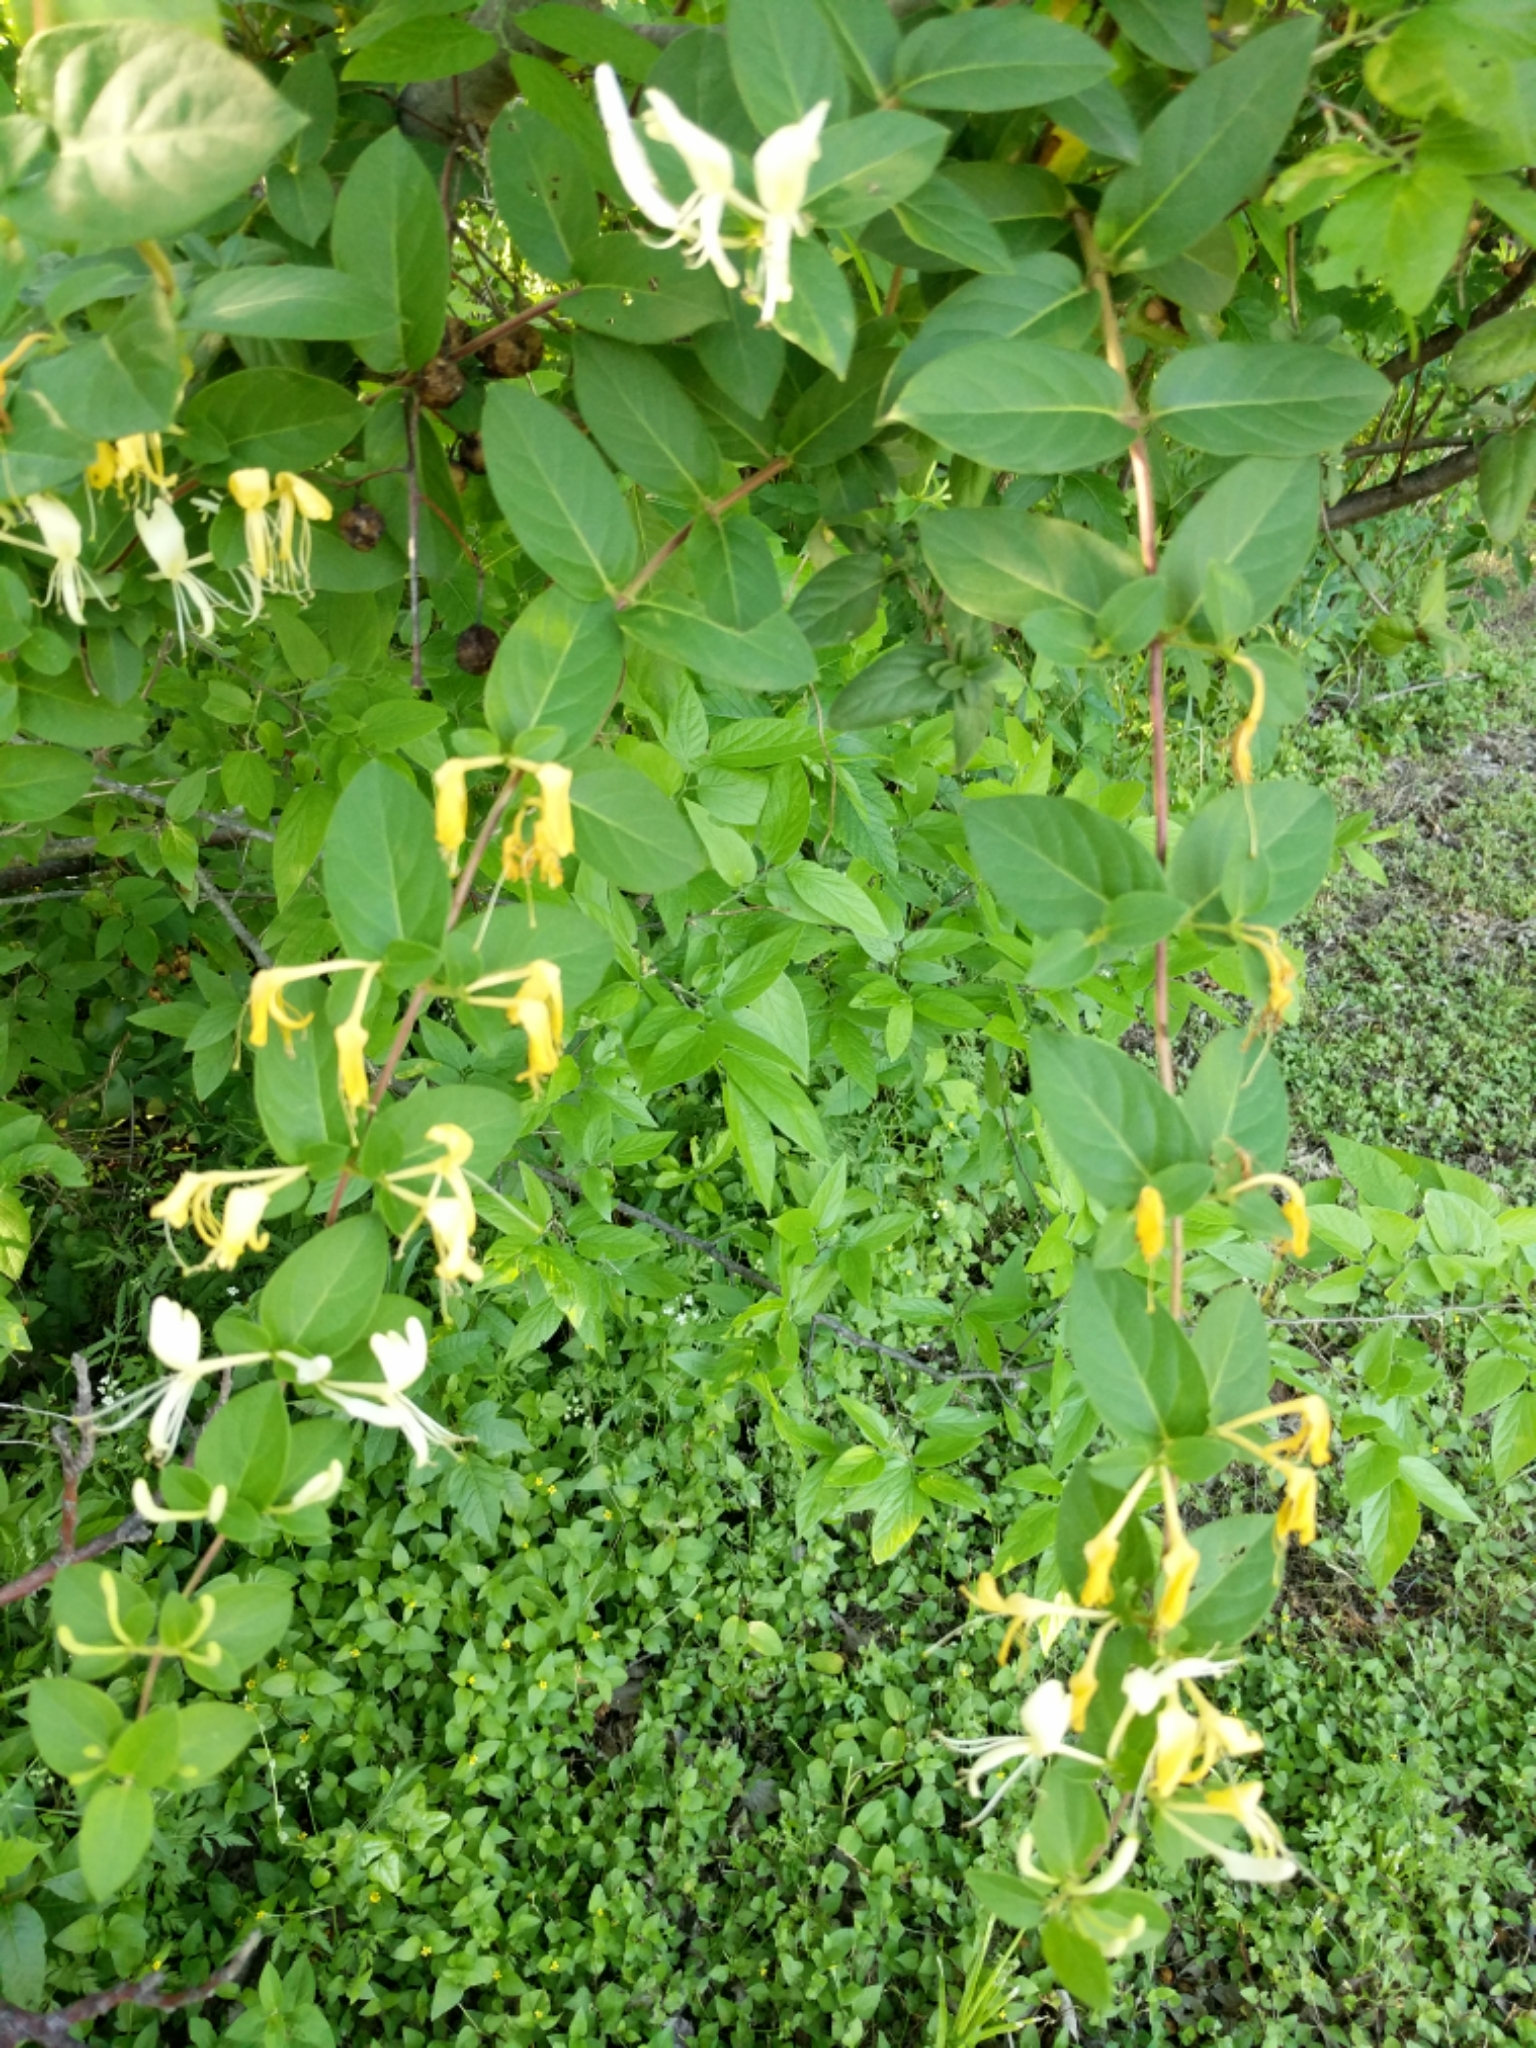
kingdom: Plantae
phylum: Tracheophyta
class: Magnoliopsida
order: Dipsacales
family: Caprifoliaceae
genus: Lonicera
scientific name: Lonicera japonica
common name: Japanese honeysuckle
